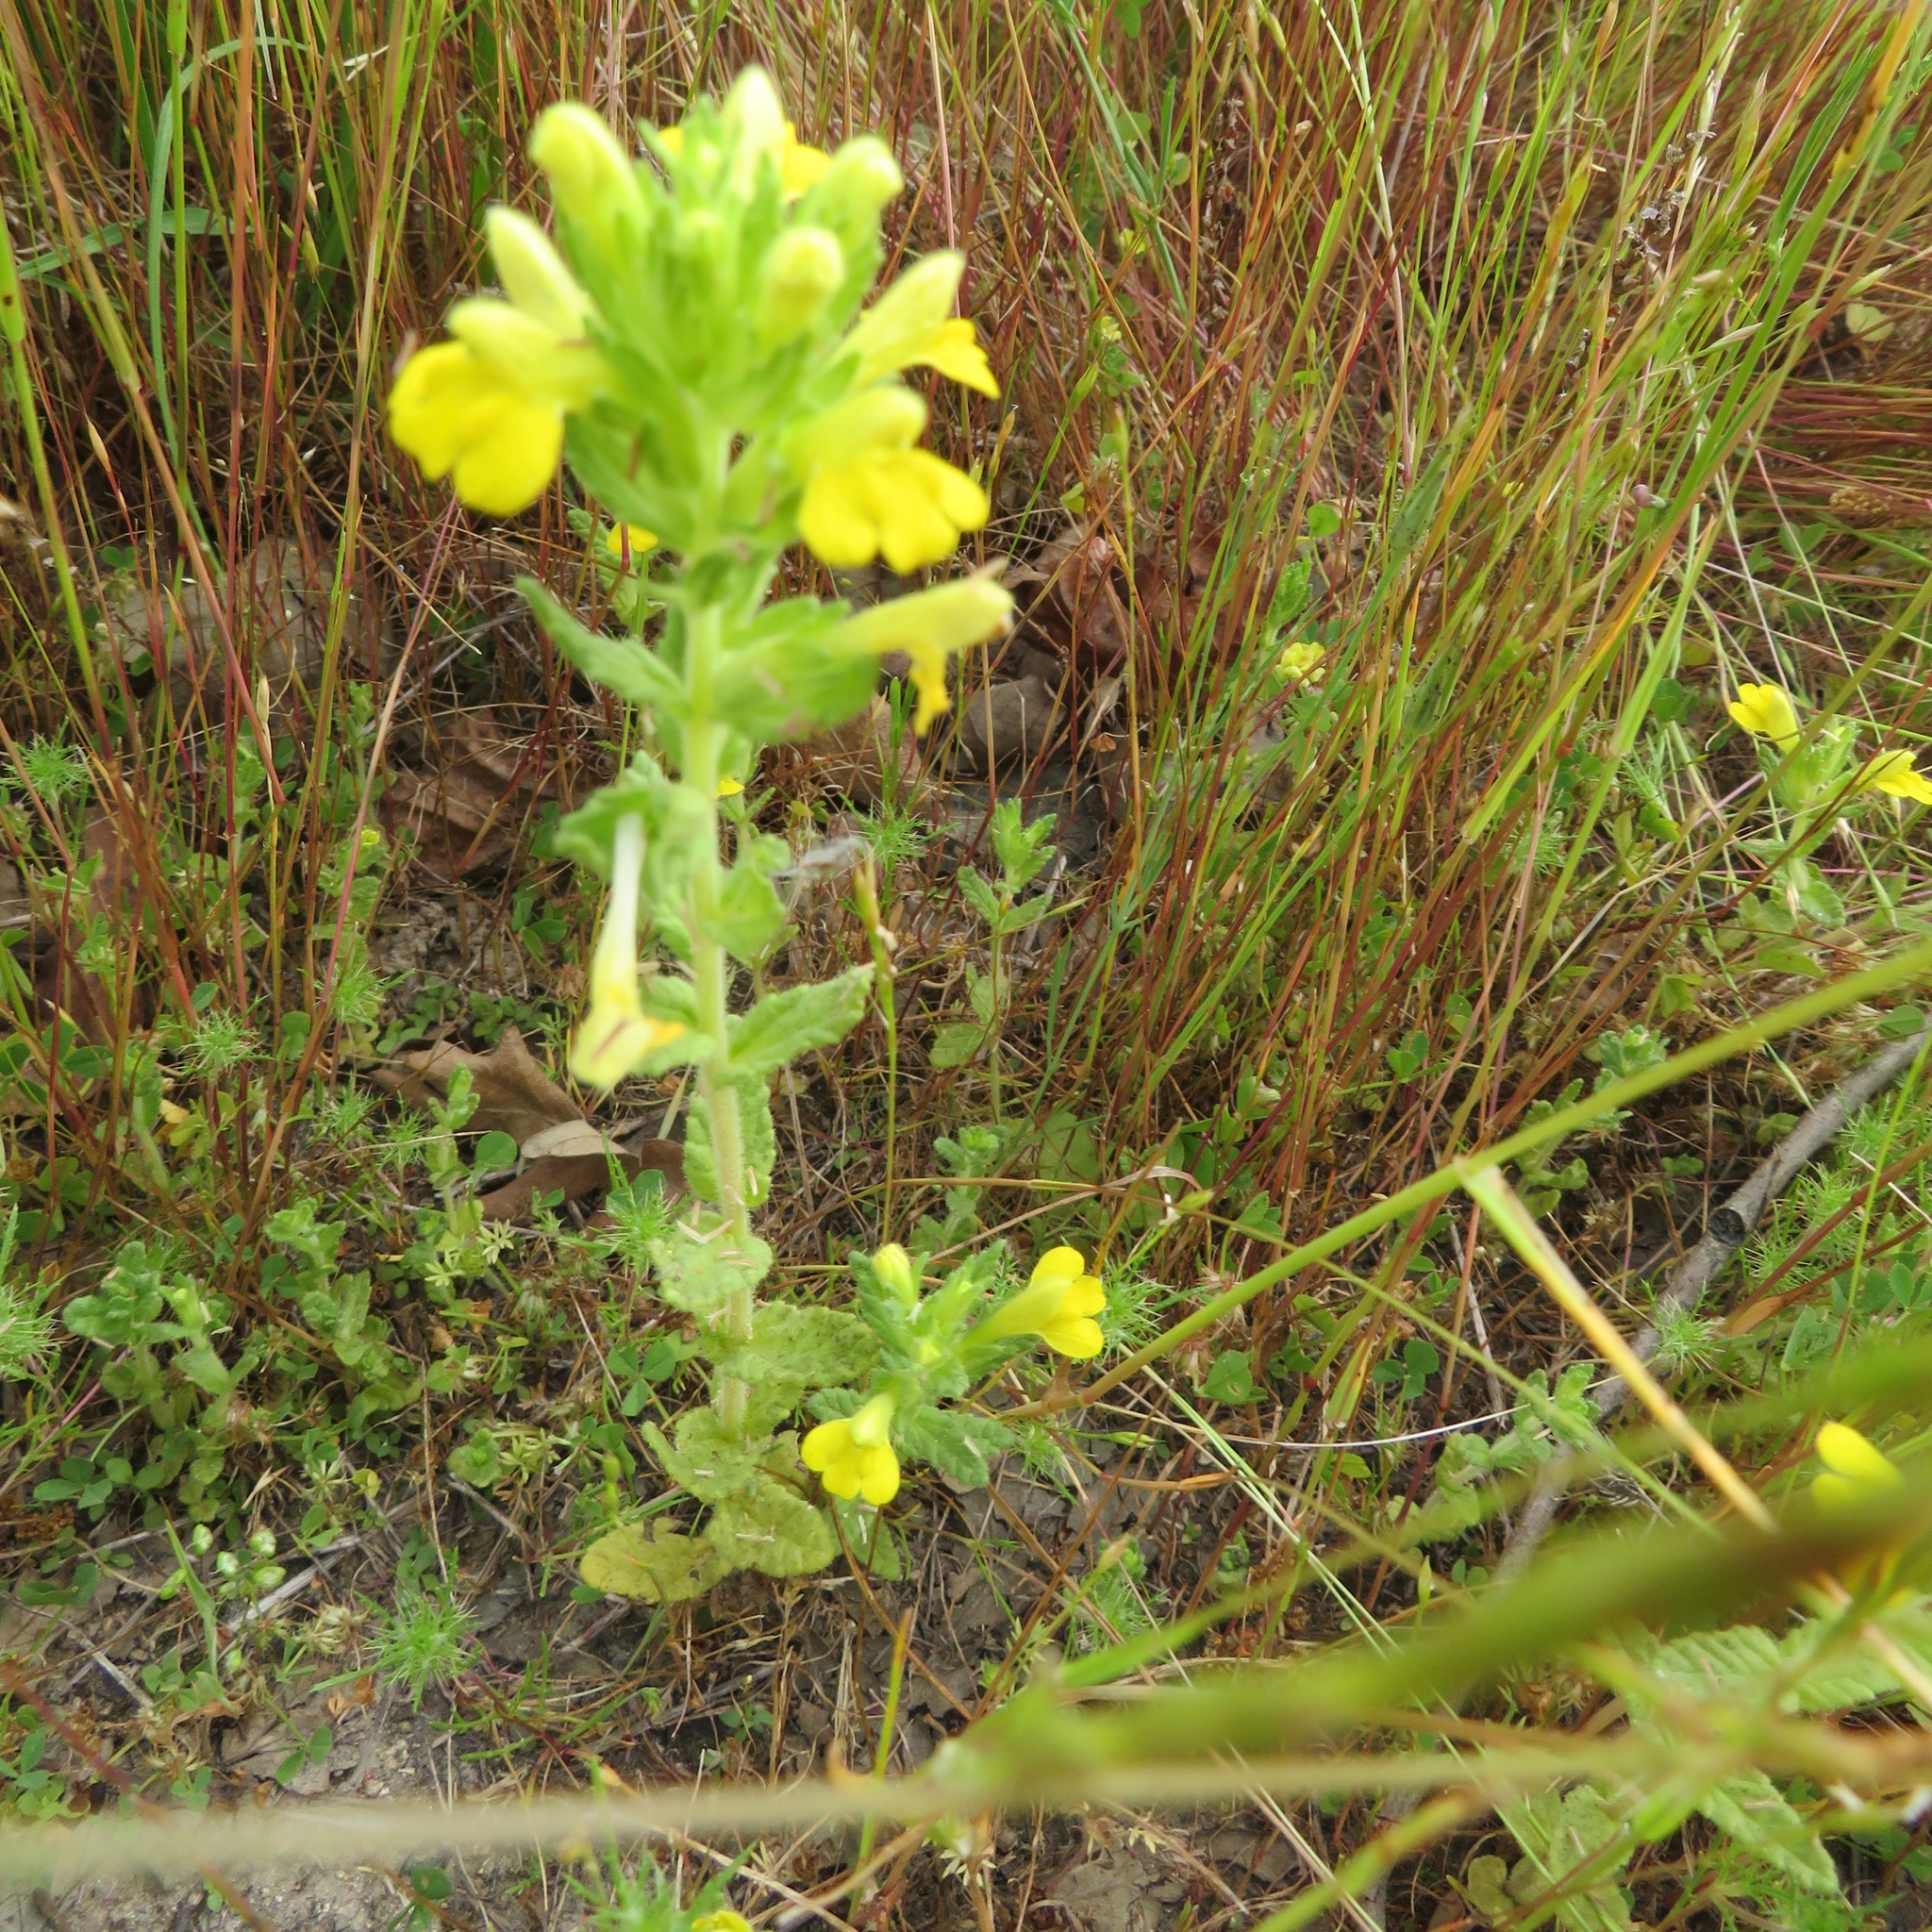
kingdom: Plantae
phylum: Tracheophyta
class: Magnoliopsida
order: Lamiales
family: Orobanchaceae
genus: Bellardia
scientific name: Bellardia viscosa
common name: Sticky parentucellia
